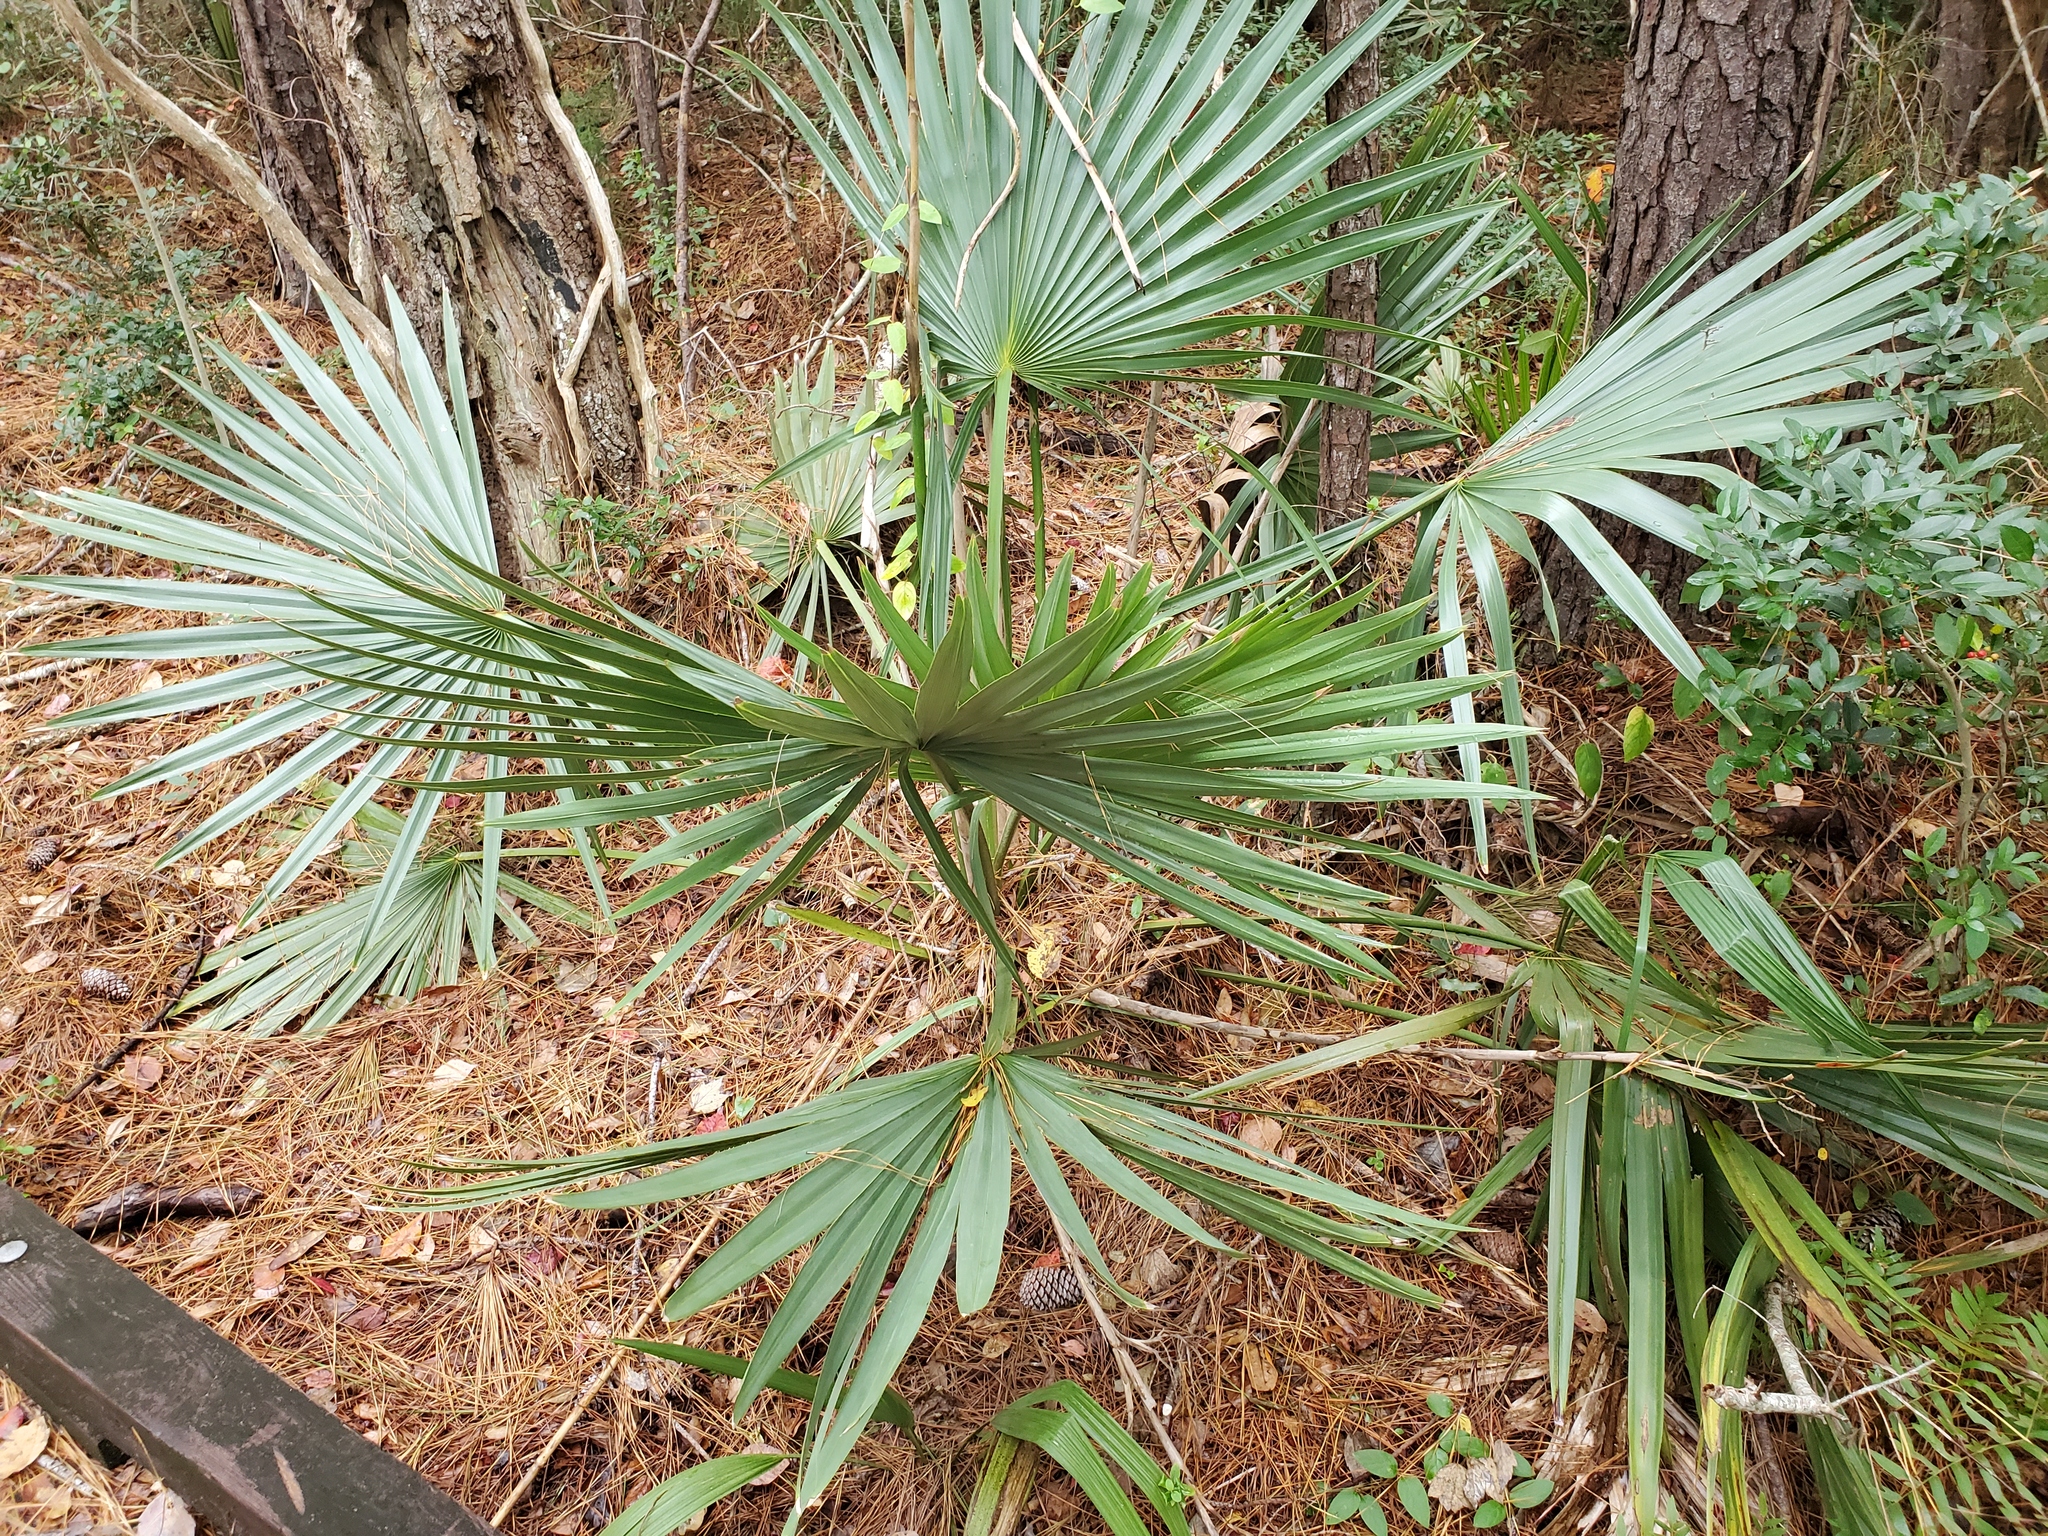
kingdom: Plantae
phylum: Tracheophyta
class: Liliopsida
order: Arecales
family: Arecaceae
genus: Sabal
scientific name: Sabal minor
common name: Dwarf palmetto
